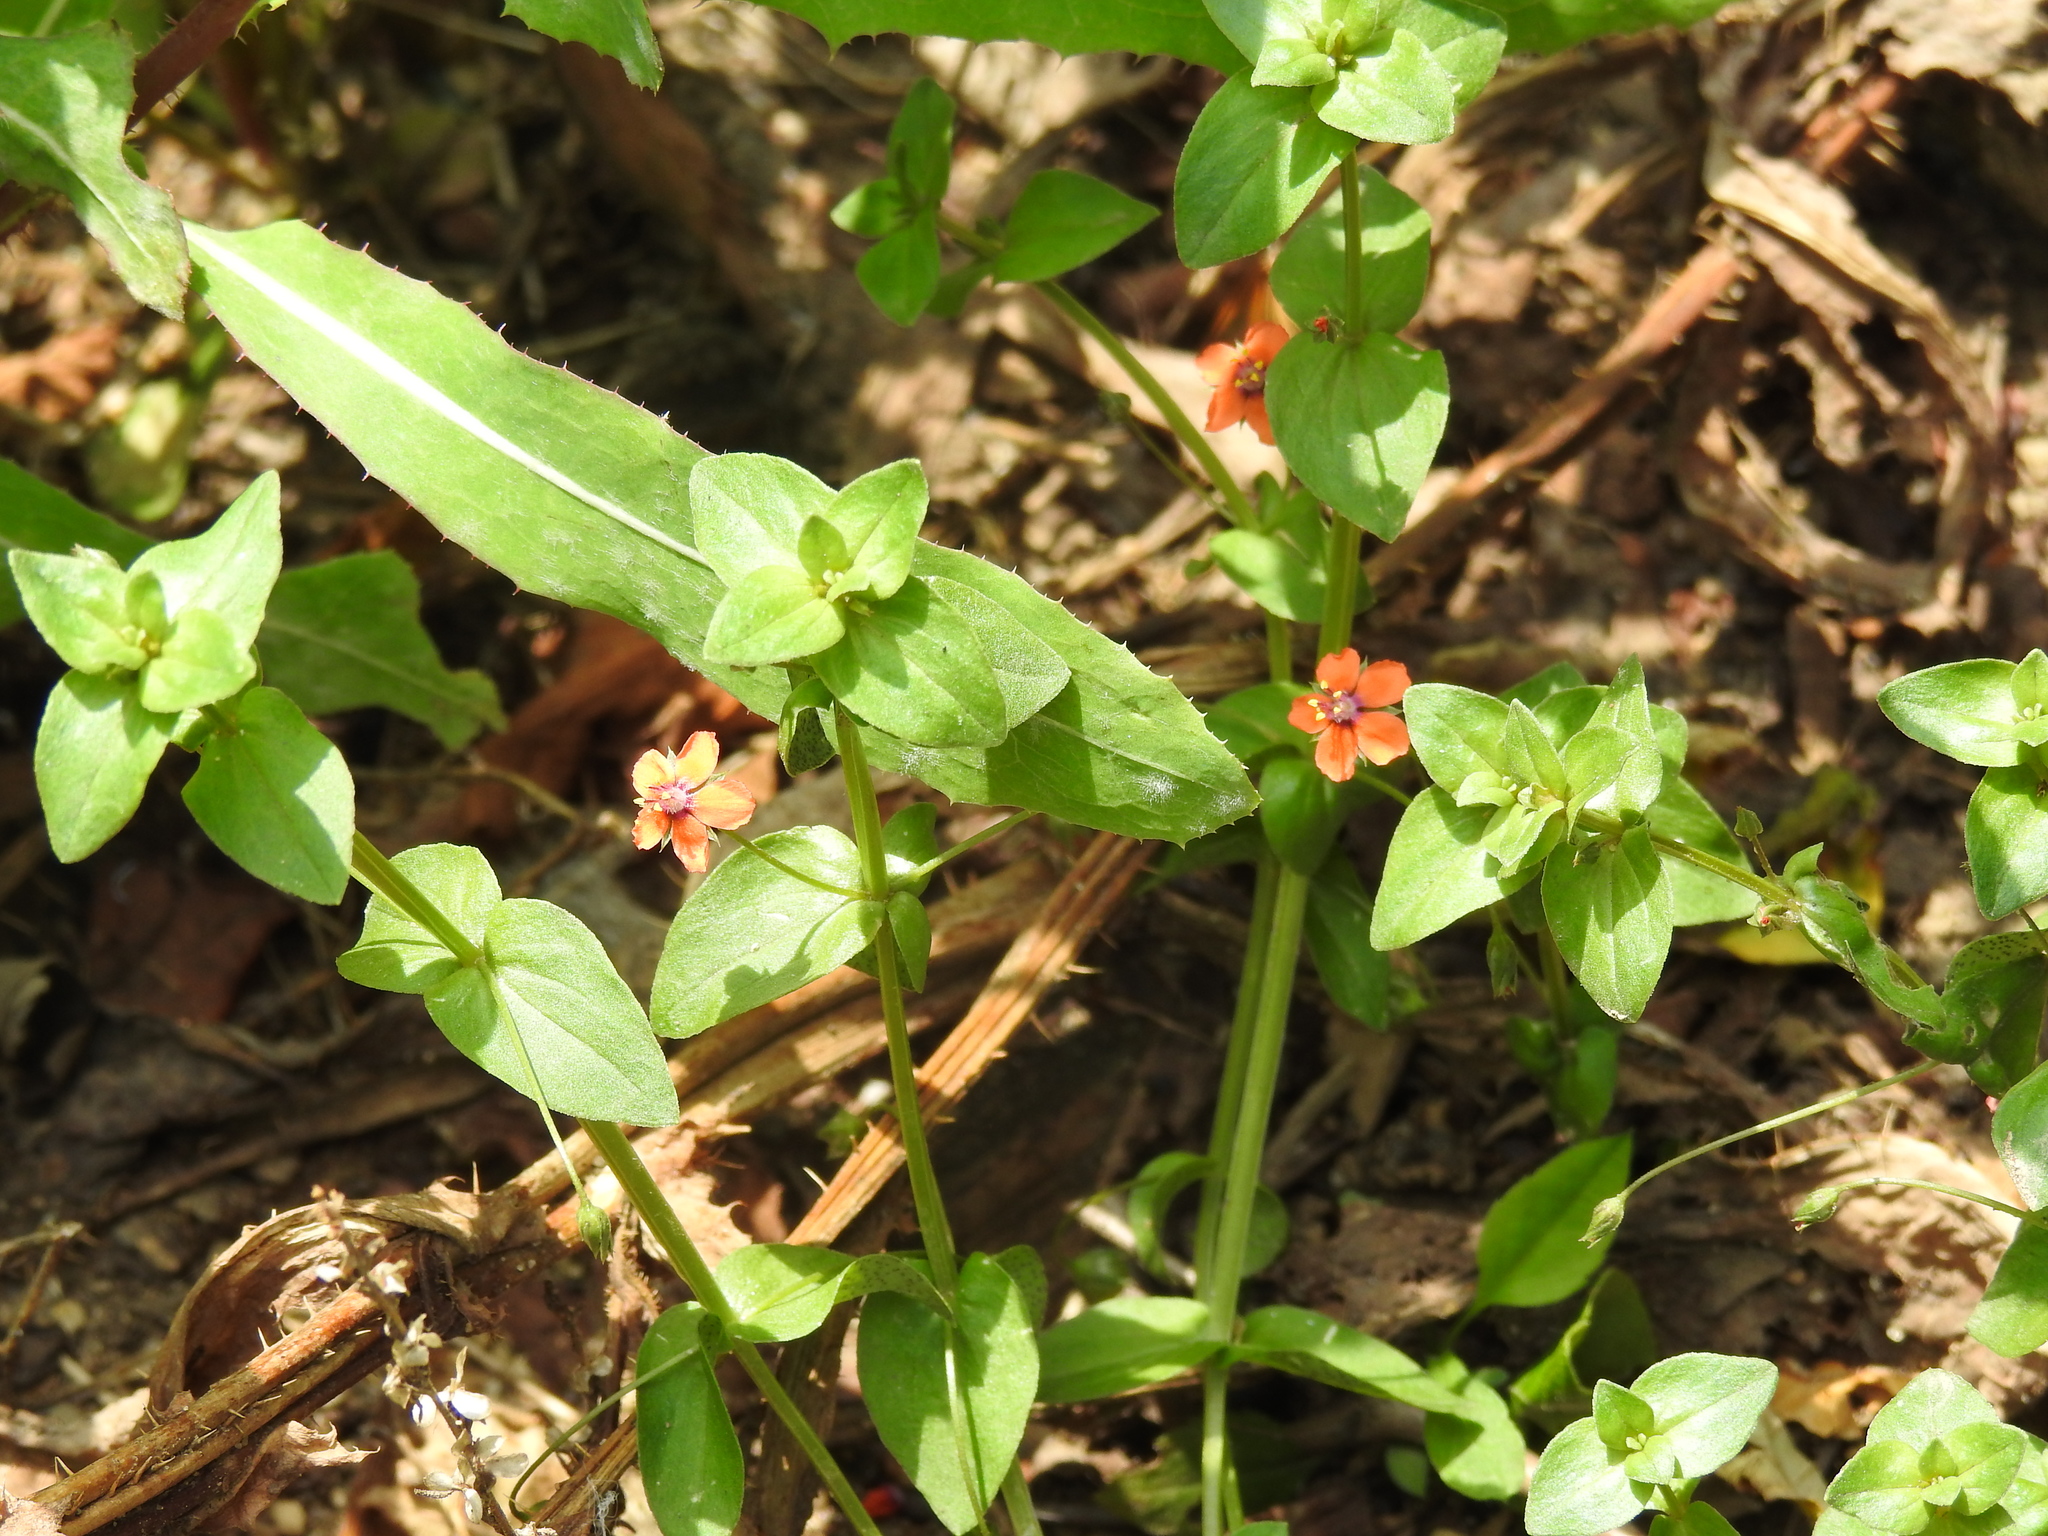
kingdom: Plantae
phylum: Tracheophyta
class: Magnoliopsida
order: Ericales
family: Primulaceae
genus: Lysimachia
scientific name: Lysimachia arvensis
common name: Scarlet pimpernel
